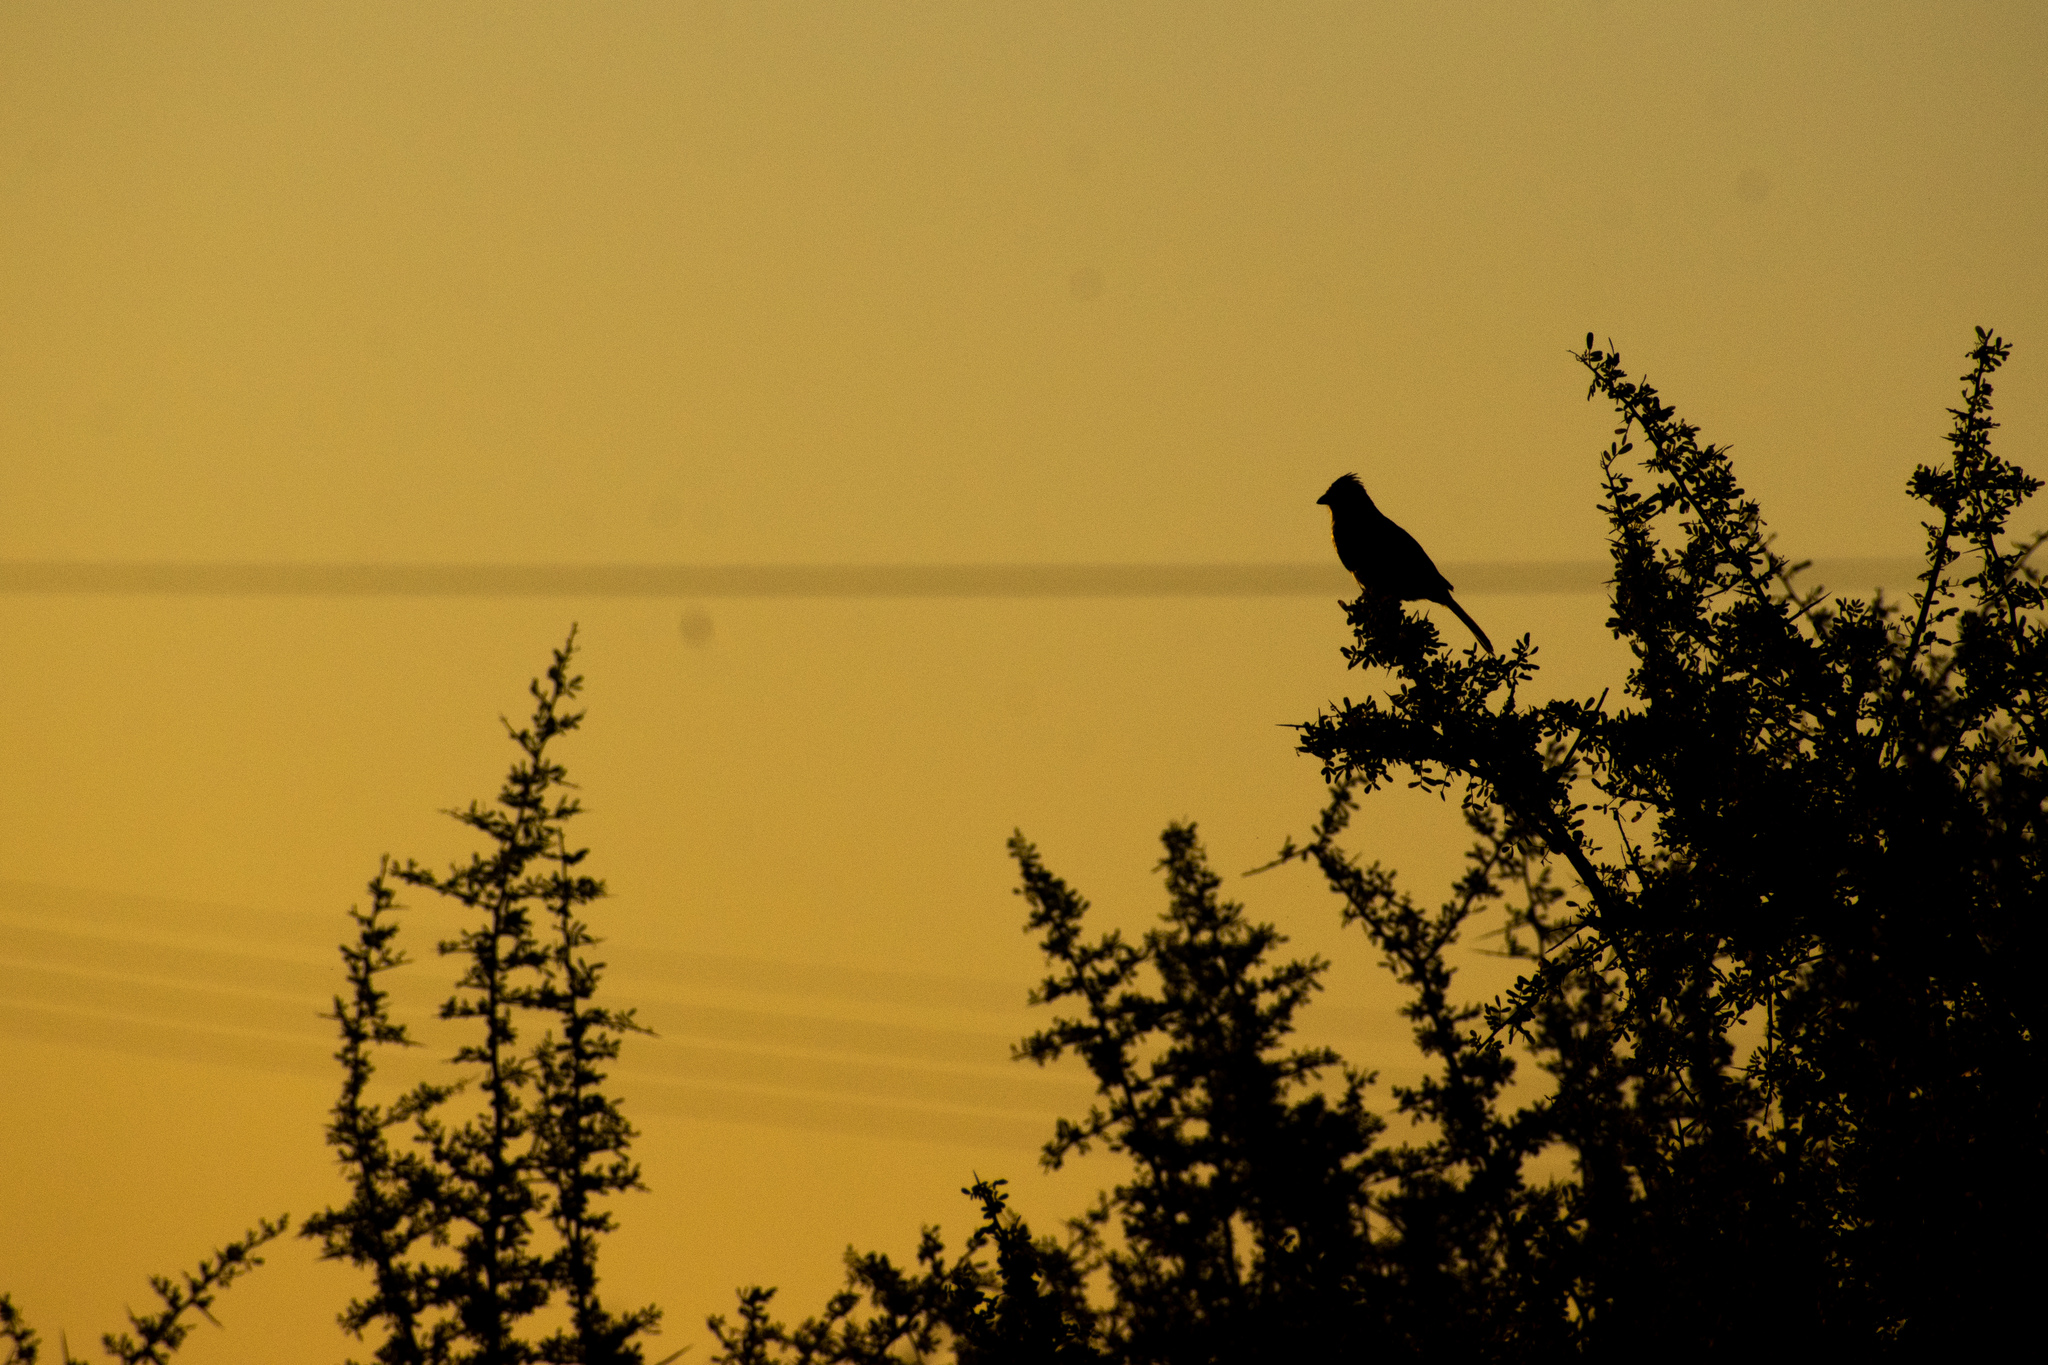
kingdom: Animalia
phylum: Chordata
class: Aves
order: Passeriformes
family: Cotingidae
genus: Phytotoma
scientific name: Phytotoma rutila
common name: White-tipped plantcutter
